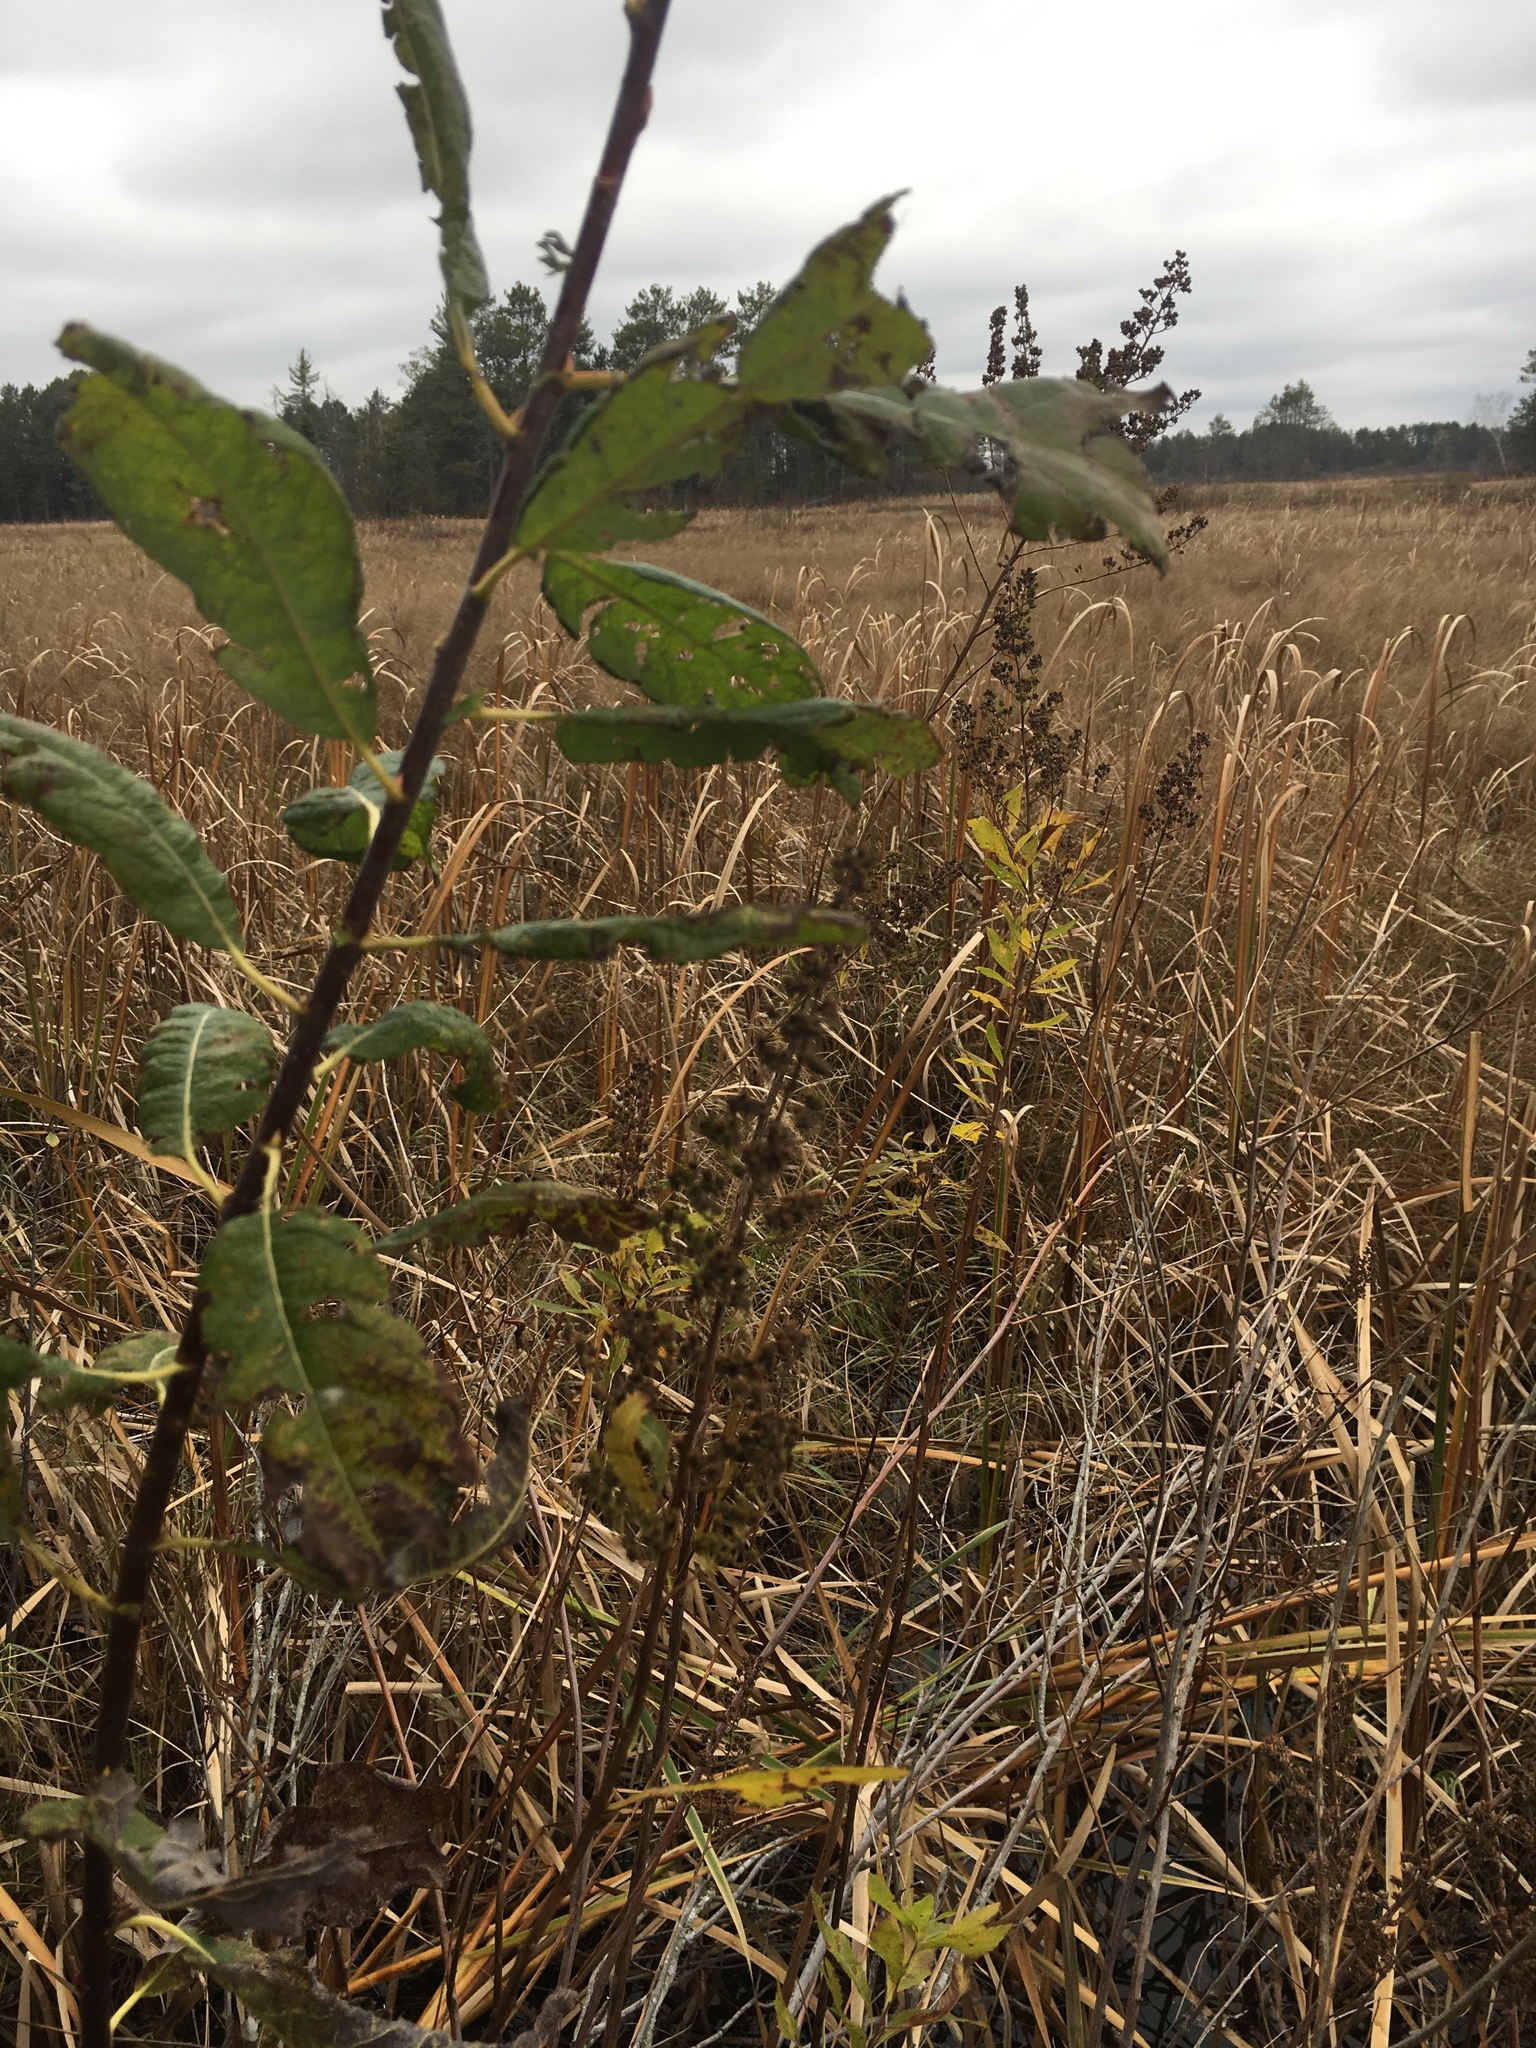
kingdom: Plantae
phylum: Tracheophyta
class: Magnoliopsida
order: Rosales
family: Rosaceae
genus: Spiraea
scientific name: Spiraea alba
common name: Pale bridewort
